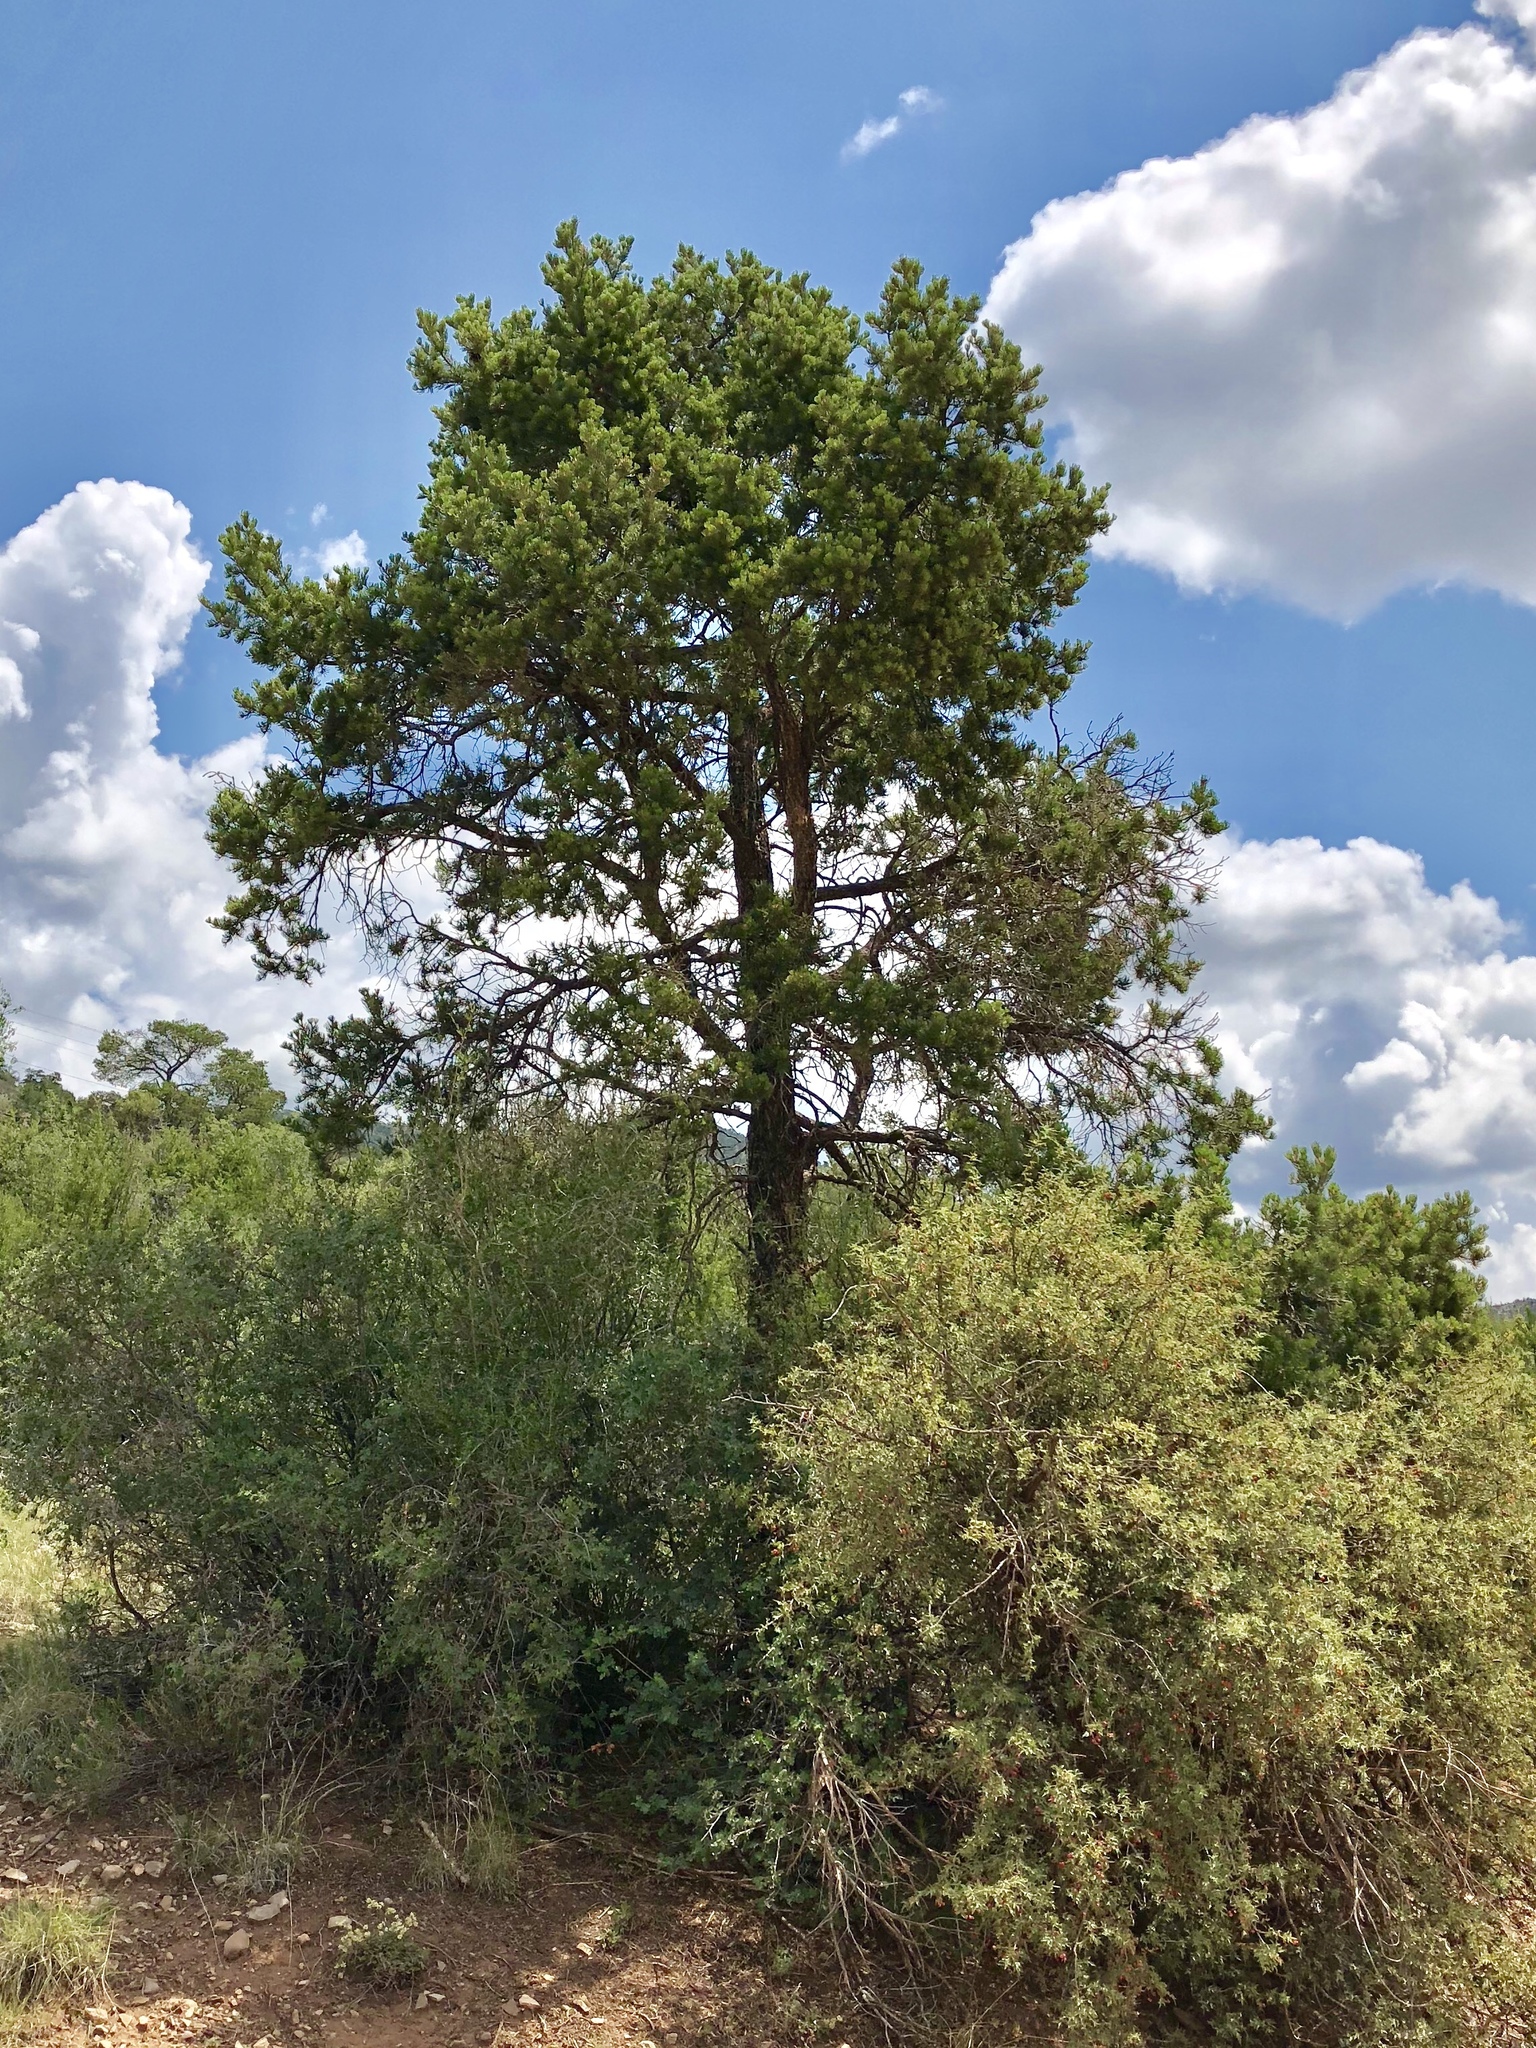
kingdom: Plantae
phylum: Tracheophyta
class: Pinopsida
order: Pinales
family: Pinaceae
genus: Pinus
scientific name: Pinus edulis
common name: Colorado pinyon
